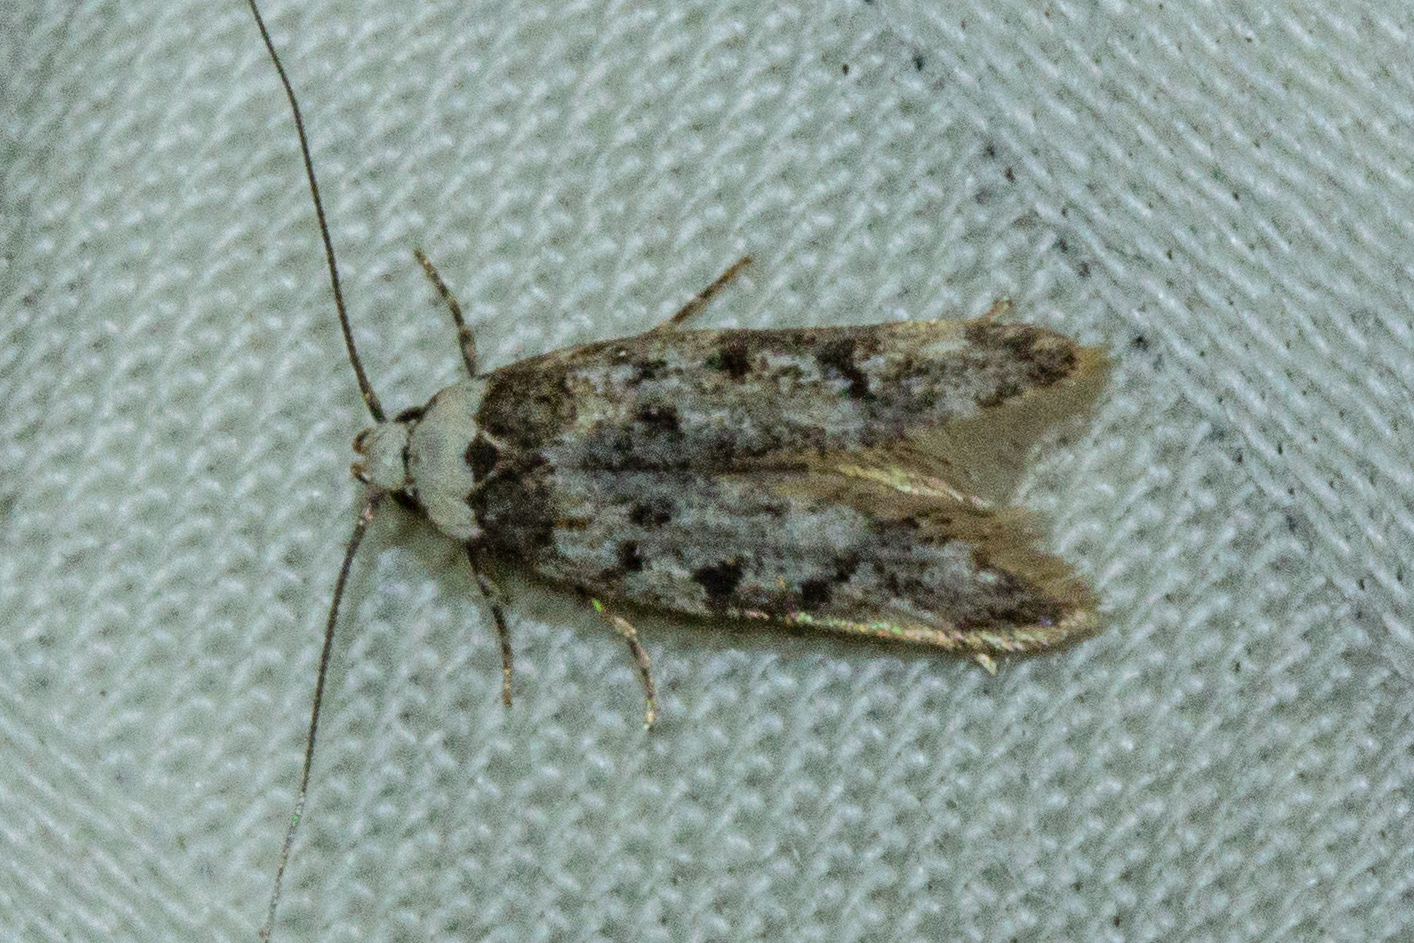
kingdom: Animalia
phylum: Arthropoda
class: Insecta
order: Lepidoptera
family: Oecophoridae
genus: Endrosis
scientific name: Endrosis sarcitrella
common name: White-shouldered house moth
